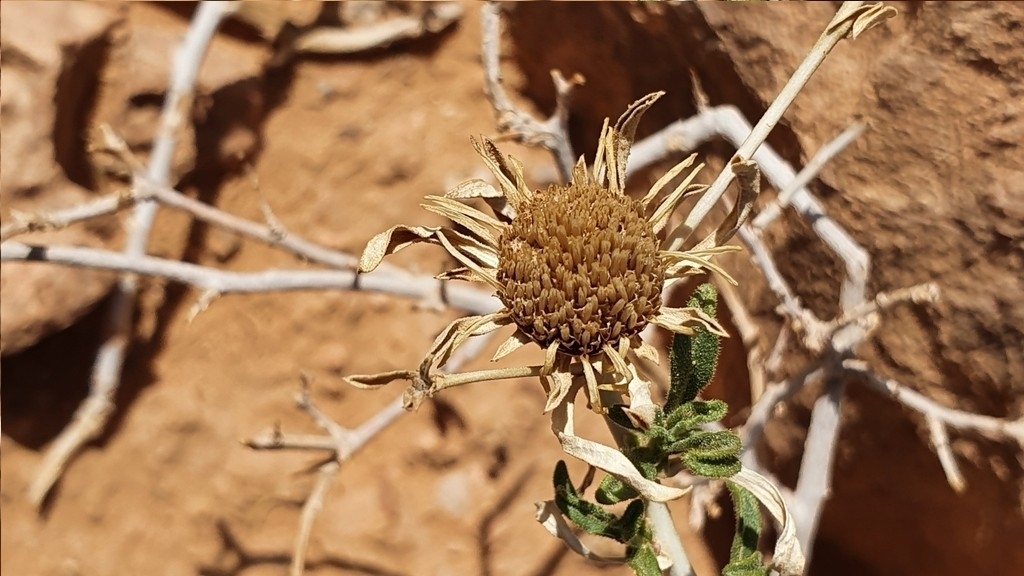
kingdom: Plantae
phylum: Tracheophyta
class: Magnoliopsida
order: Asterales
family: Asteraceae
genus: Asteriscus
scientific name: Asteriscus graveolens
